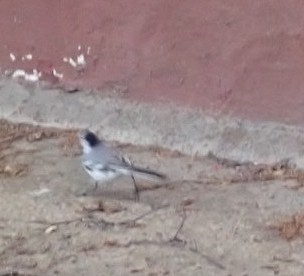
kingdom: Animalia
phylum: Chordata
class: Aves
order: Passeriformes
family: Motacillidae
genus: Motacilla
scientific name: Motacilla alba
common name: White wagtail
